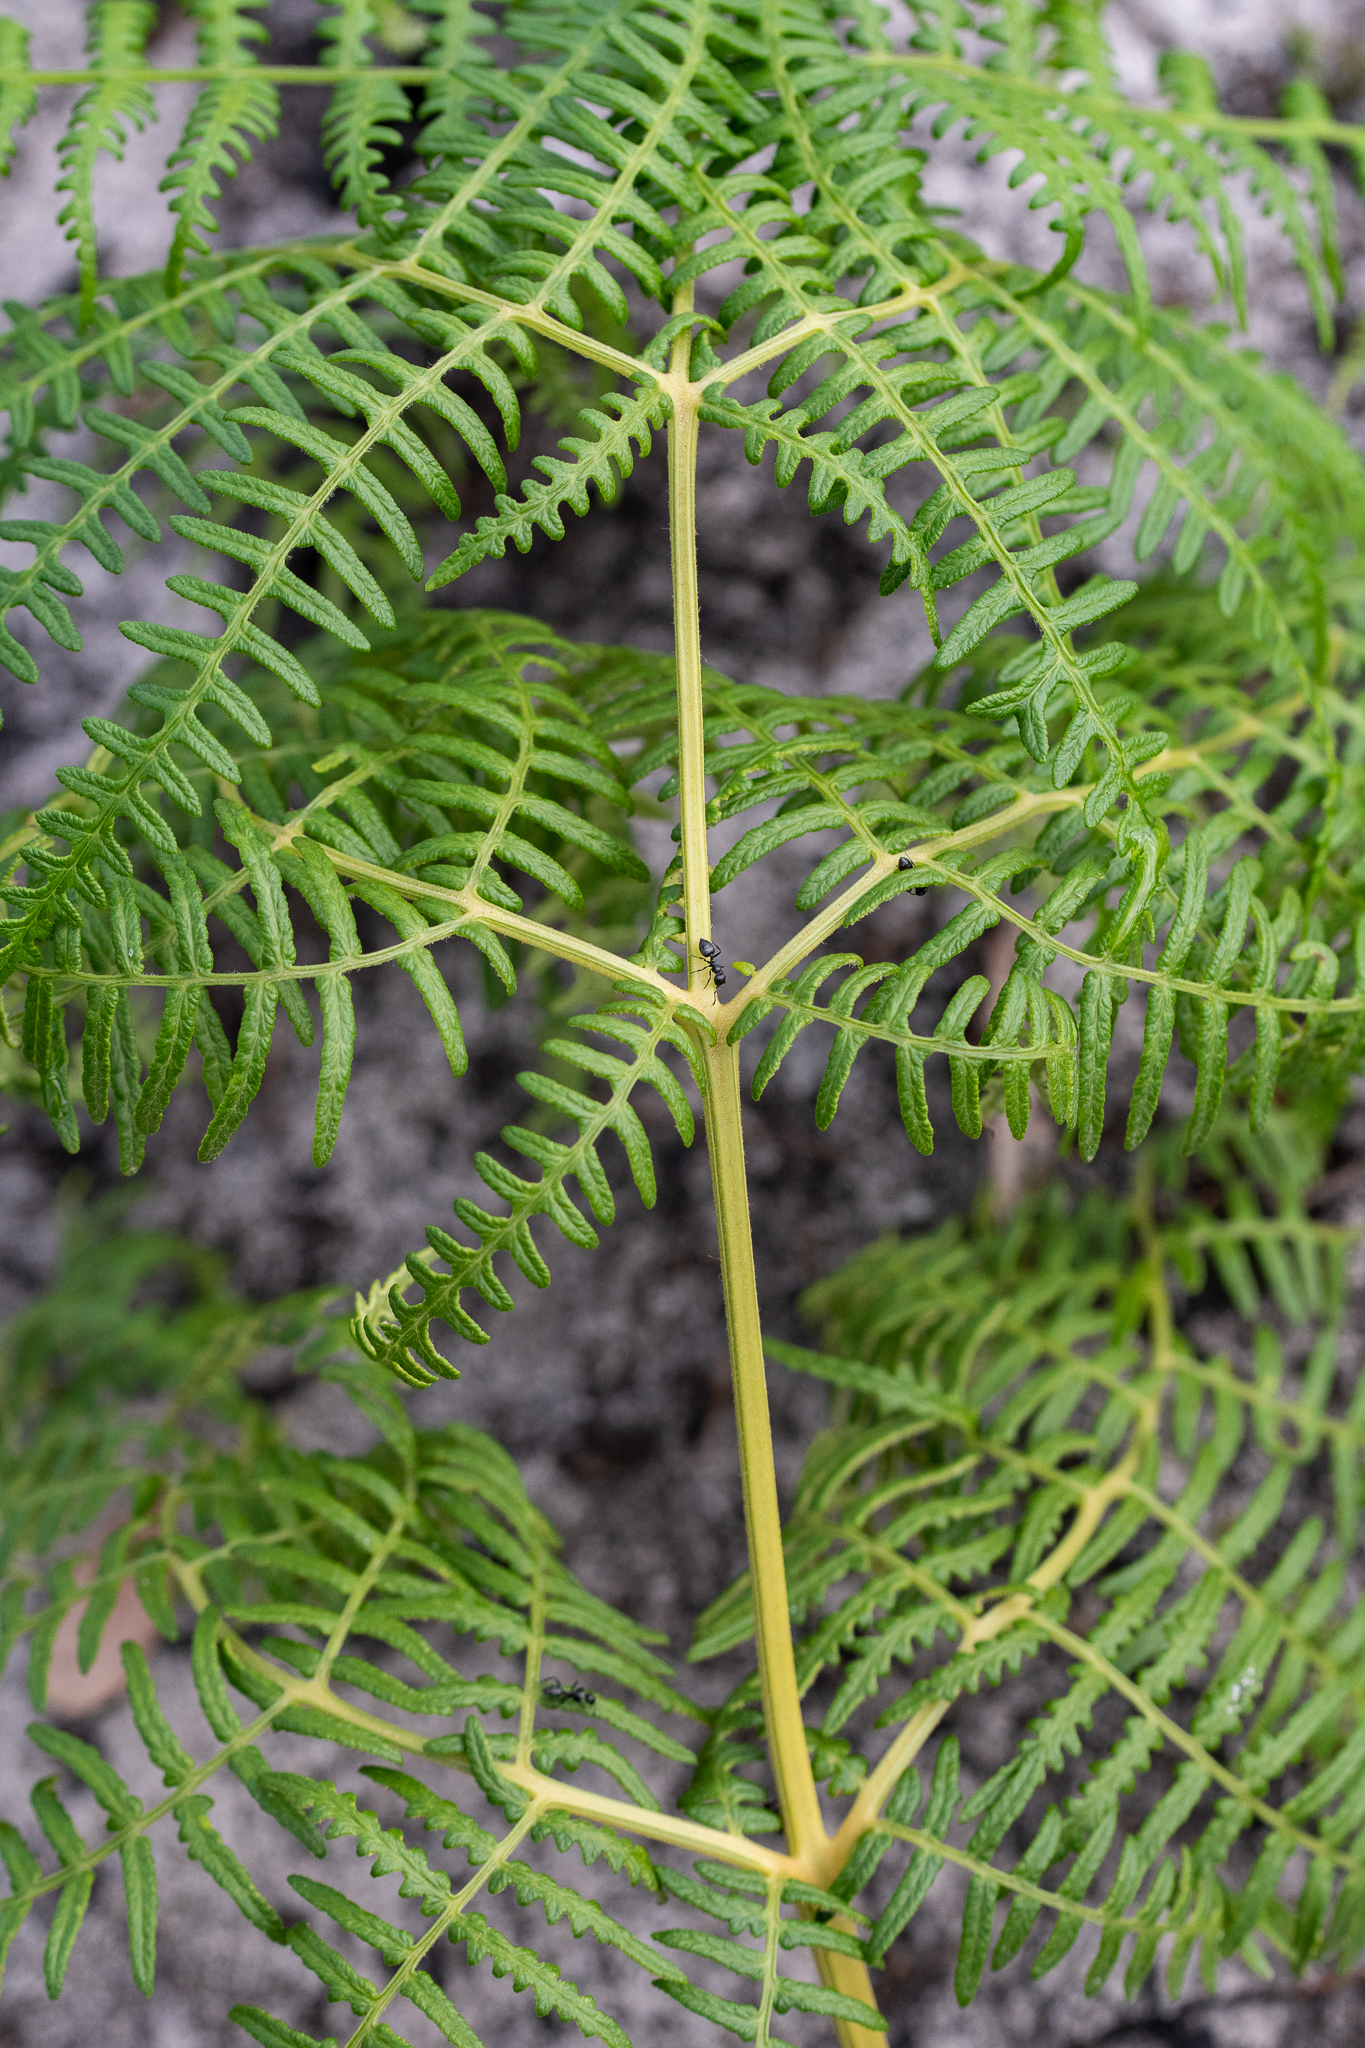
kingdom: Plantae
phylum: Tracheophyta
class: Polypodiopsida
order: Polypodiales
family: Dennstaedtiaceae
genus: Pteridium
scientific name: Pteridium aquilinum
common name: Bracken
